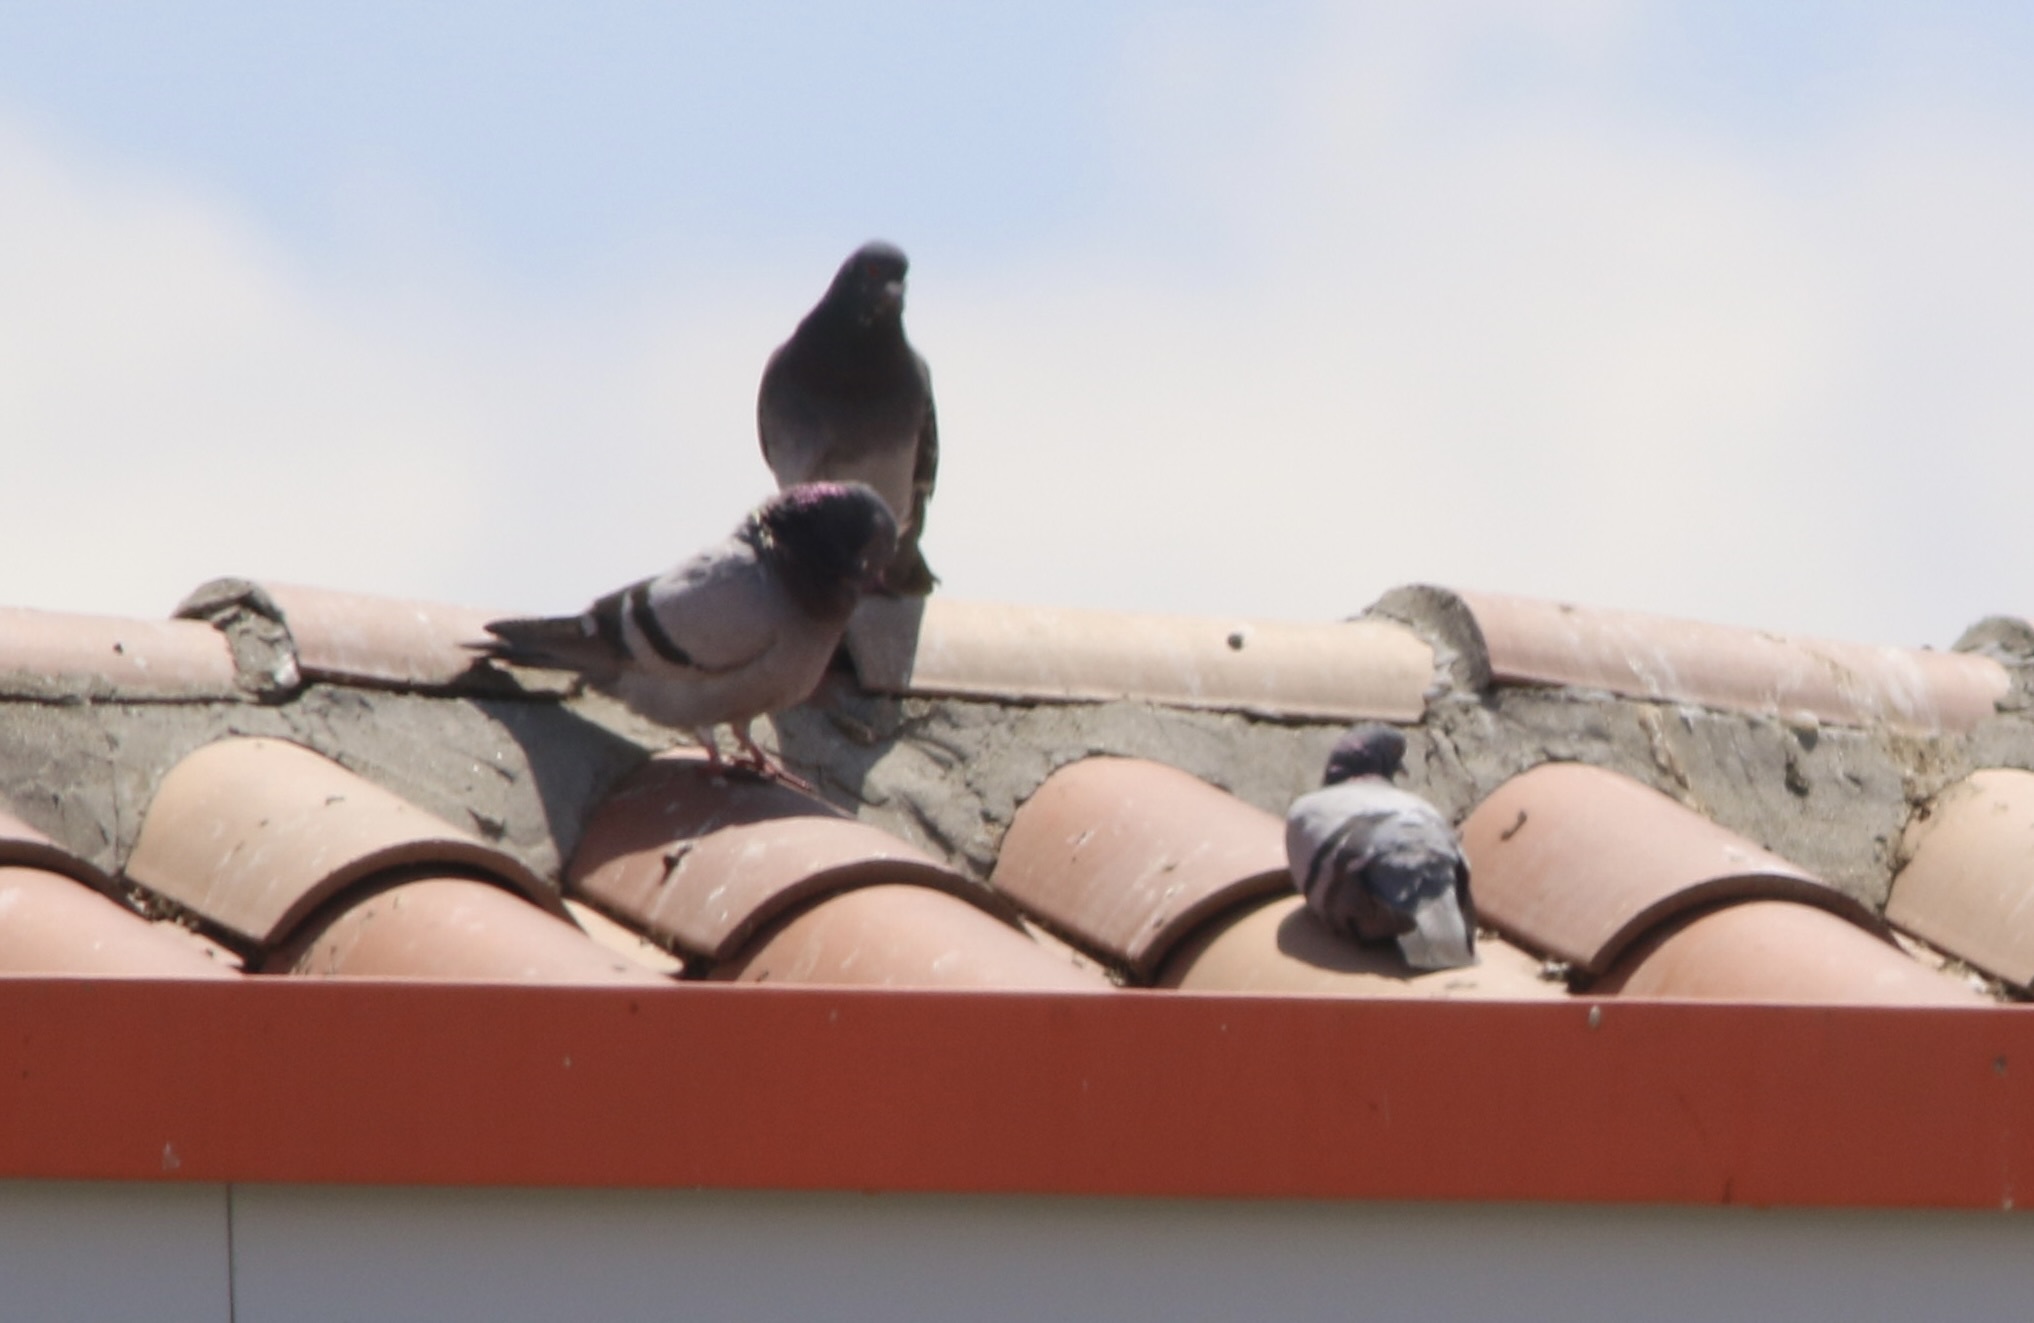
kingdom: Animalia
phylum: Chordata
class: Aves
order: Columbiformes
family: Columbidae
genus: Columba
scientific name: Columba livia
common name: Rock pigeon
